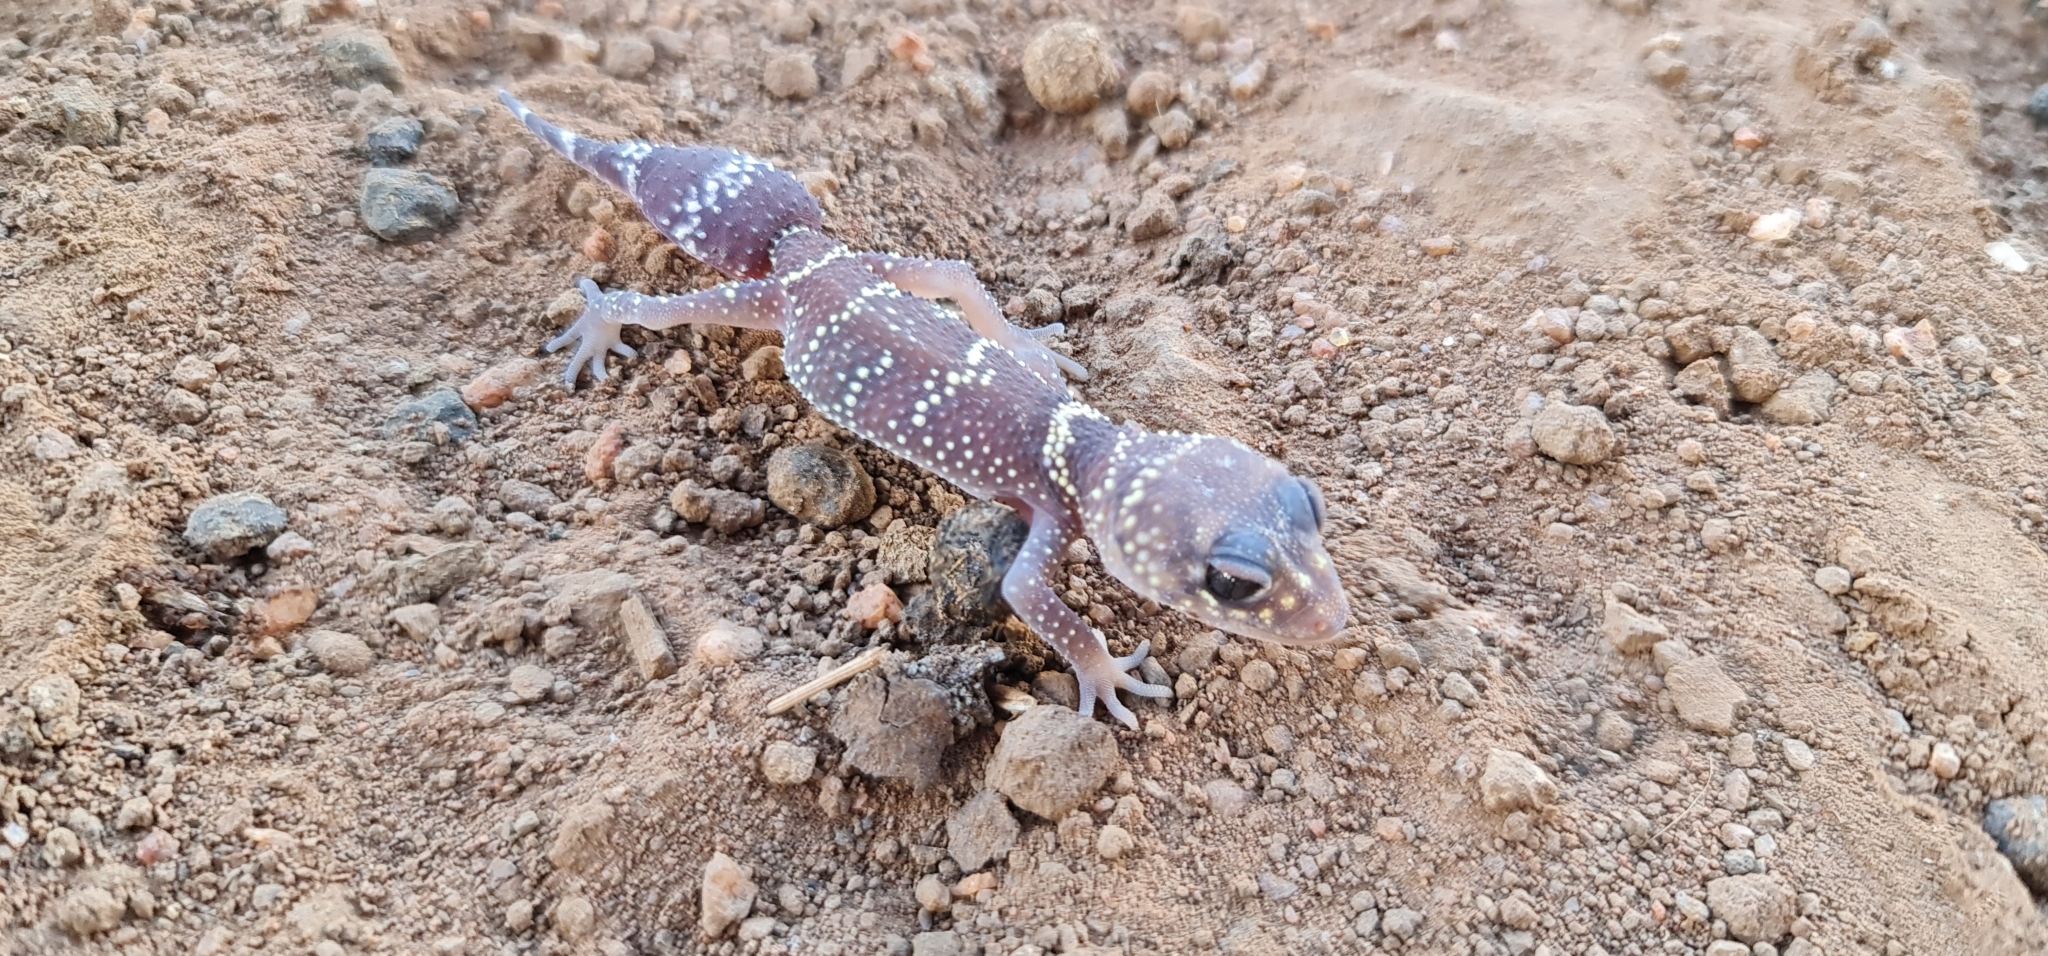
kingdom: Animalia
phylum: Chordata
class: Squamata
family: Carphodactylidae
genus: Underwoodisaurus
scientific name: Underwoodisaurus milii
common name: Barking gecko
